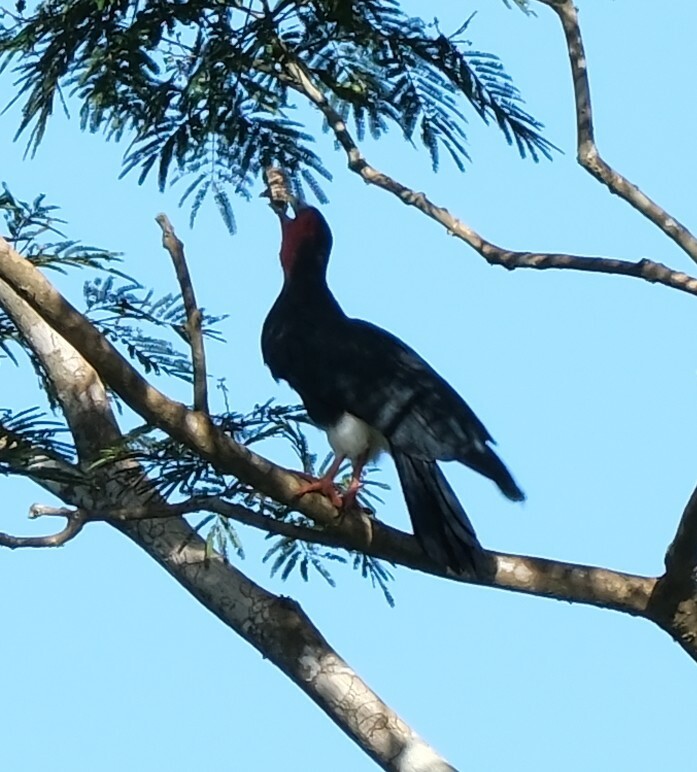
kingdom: Animalia
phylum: Chordata
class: Aves
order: Falconiformes
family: Falconidae
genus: Ibycter
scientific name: Ibycter americanus
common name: Red-throated caracara
